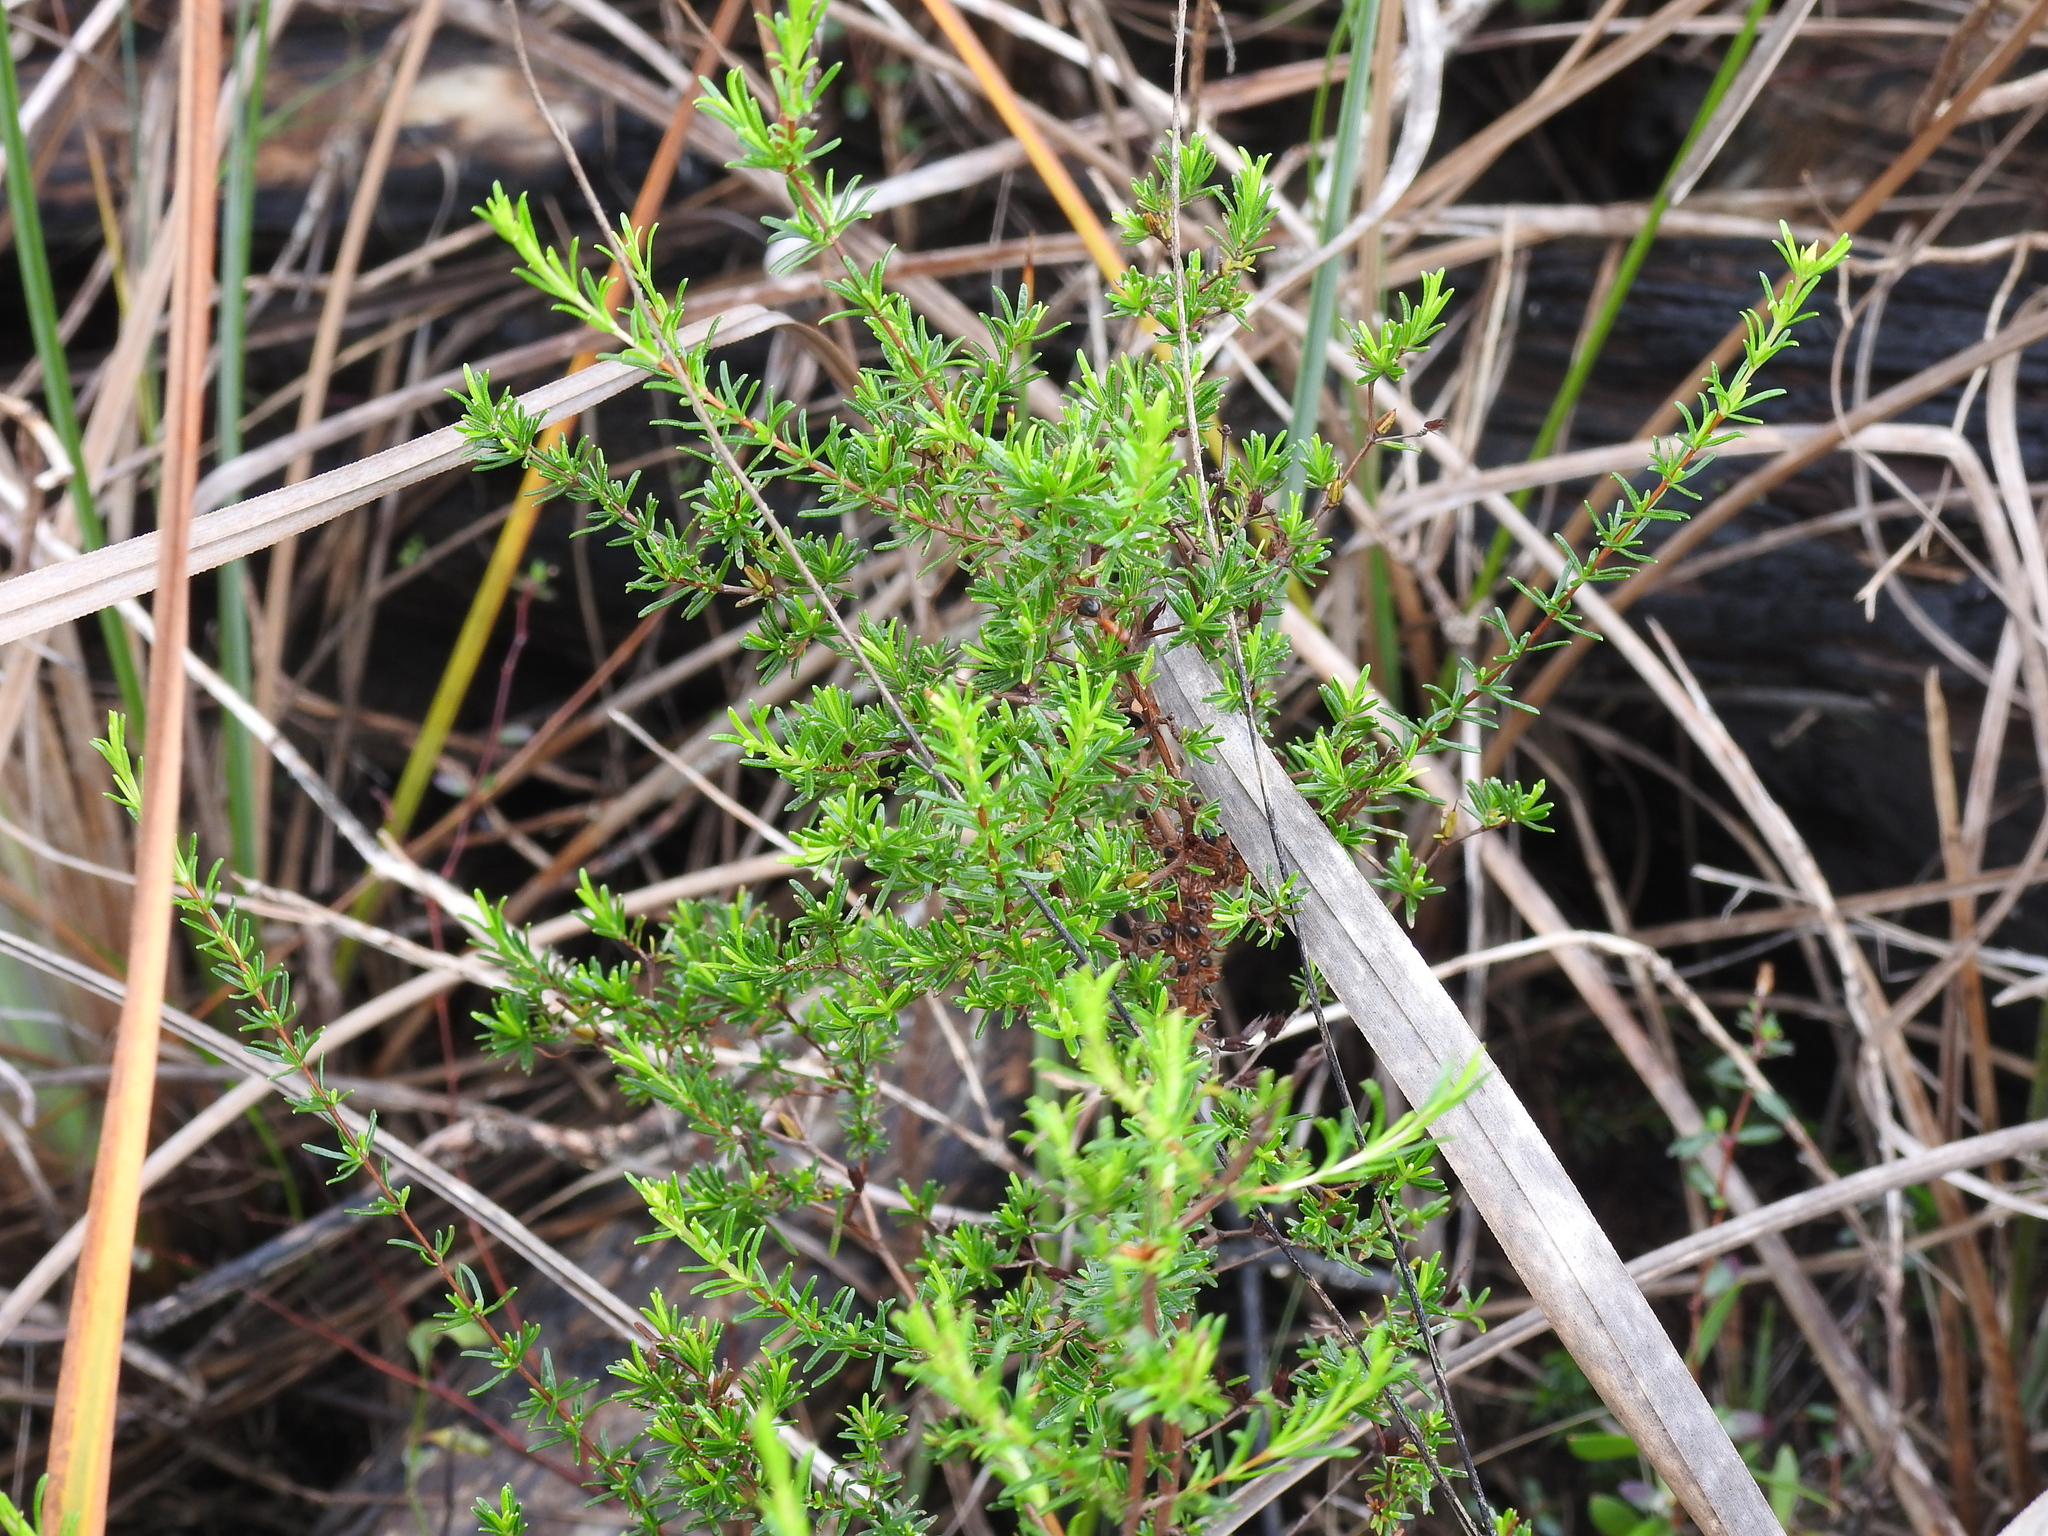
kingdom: Plantae
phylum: Tracheophyta
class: Magnoliopsida
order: Malpighiales
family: Hypericaceae
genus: Hypericum
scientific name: Hypericum limosum
